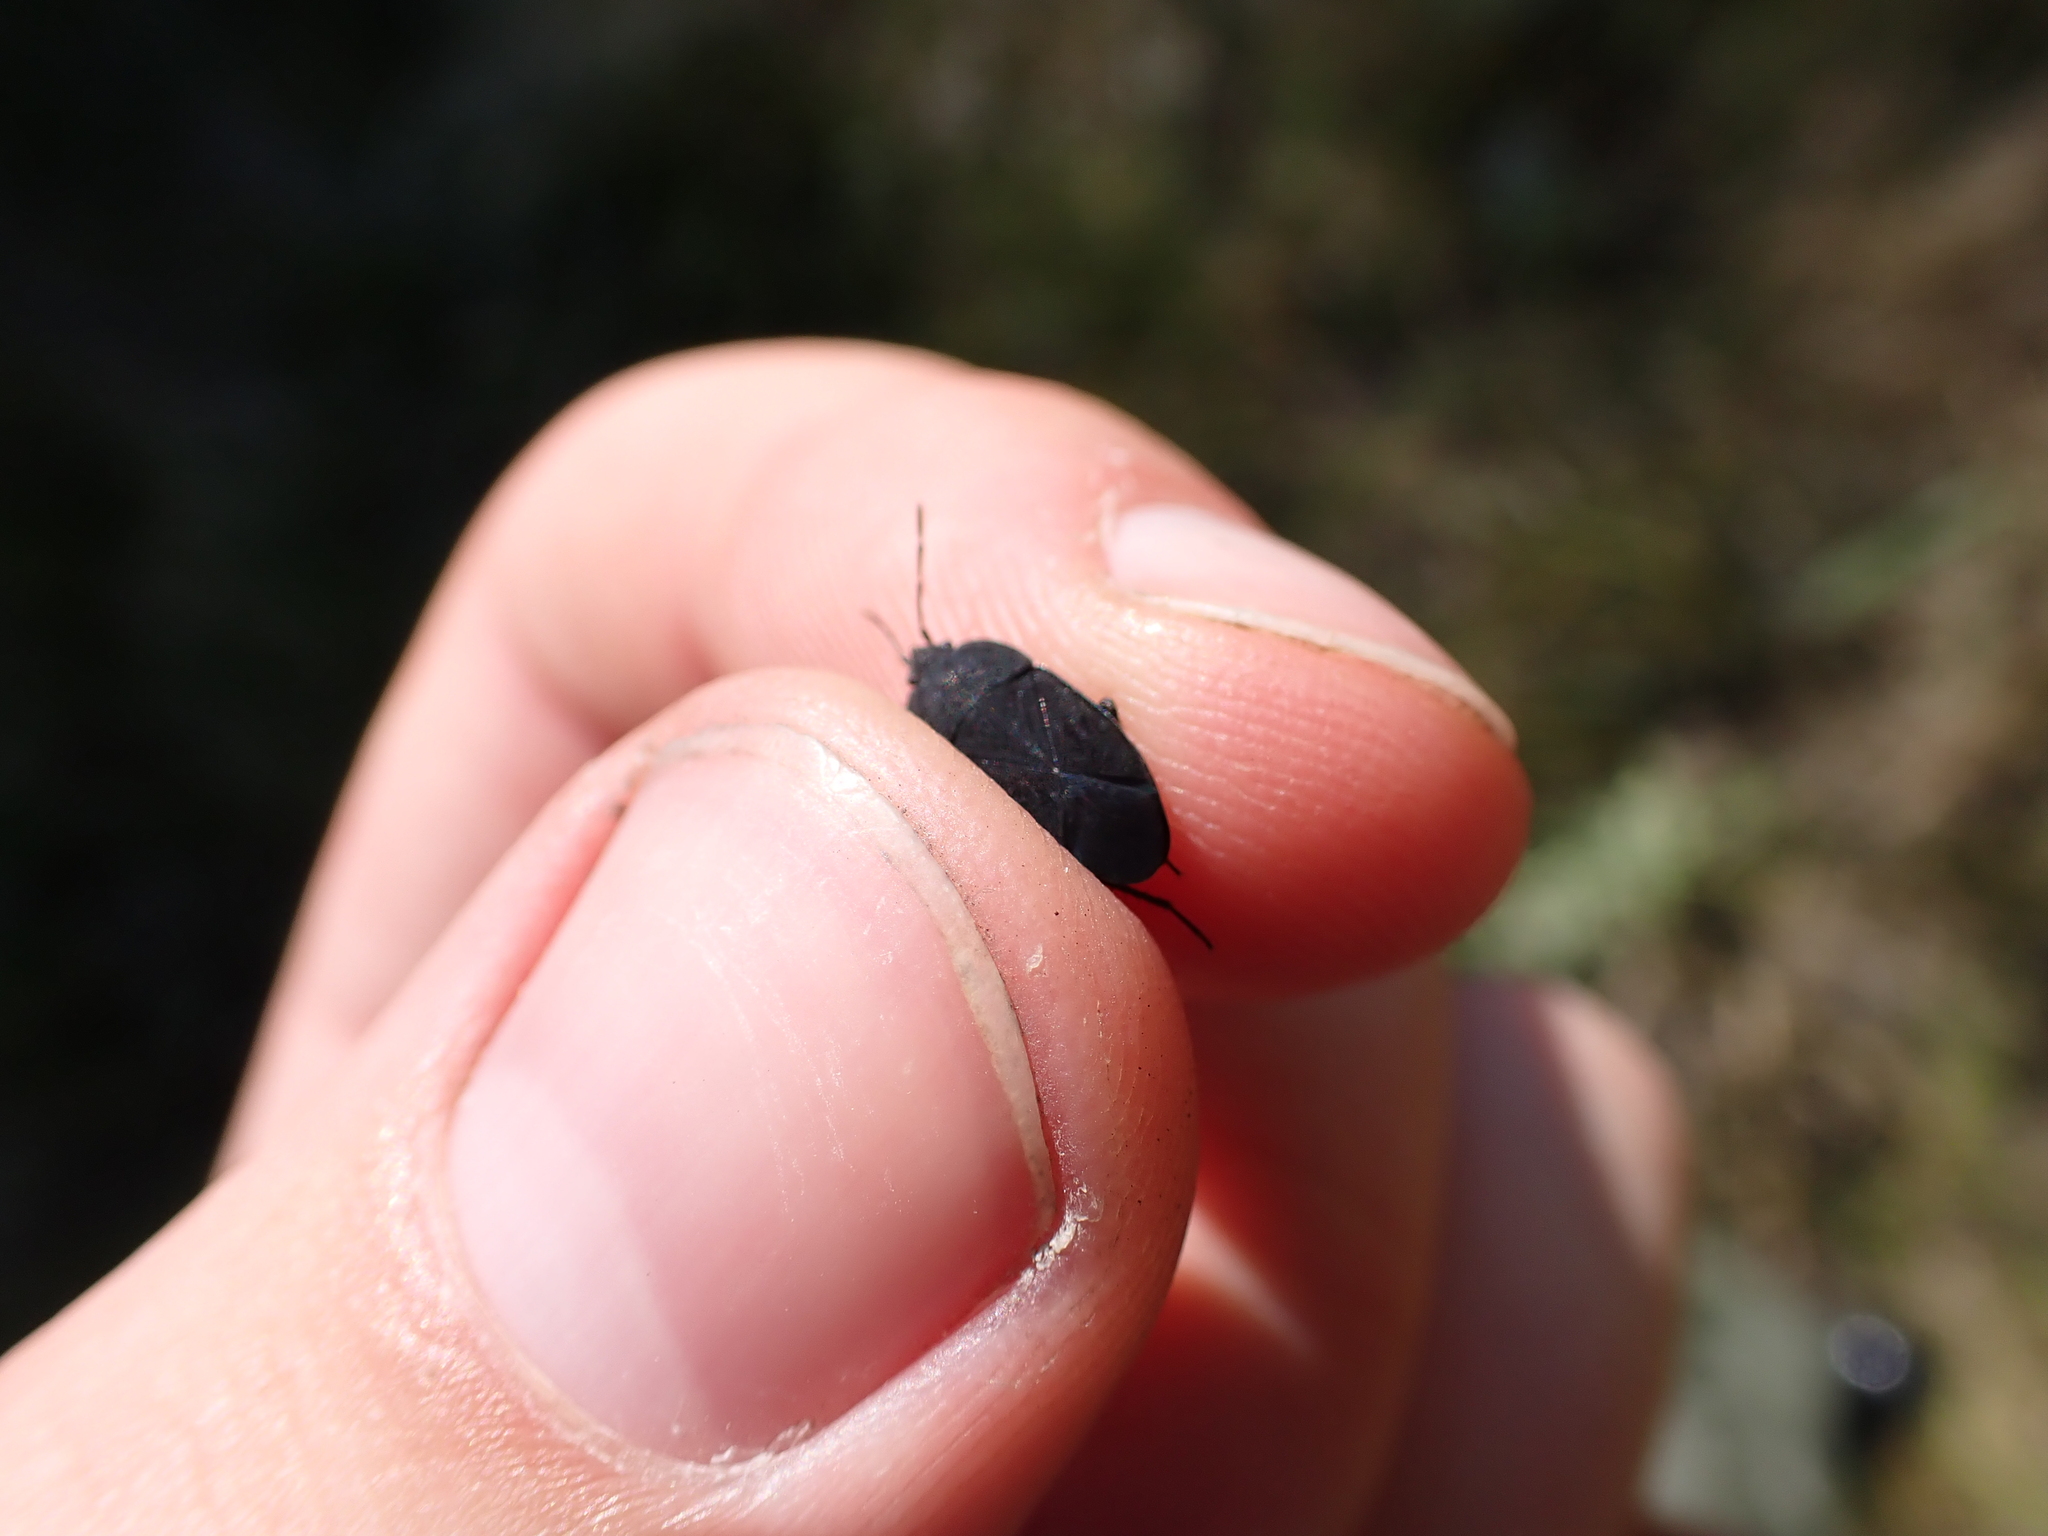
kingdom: Animalia
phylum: Arthropoda
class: Insecta
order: Hemiptera
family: Rhyparochromidae
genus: Aellopus
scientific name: Aellopus atratus
